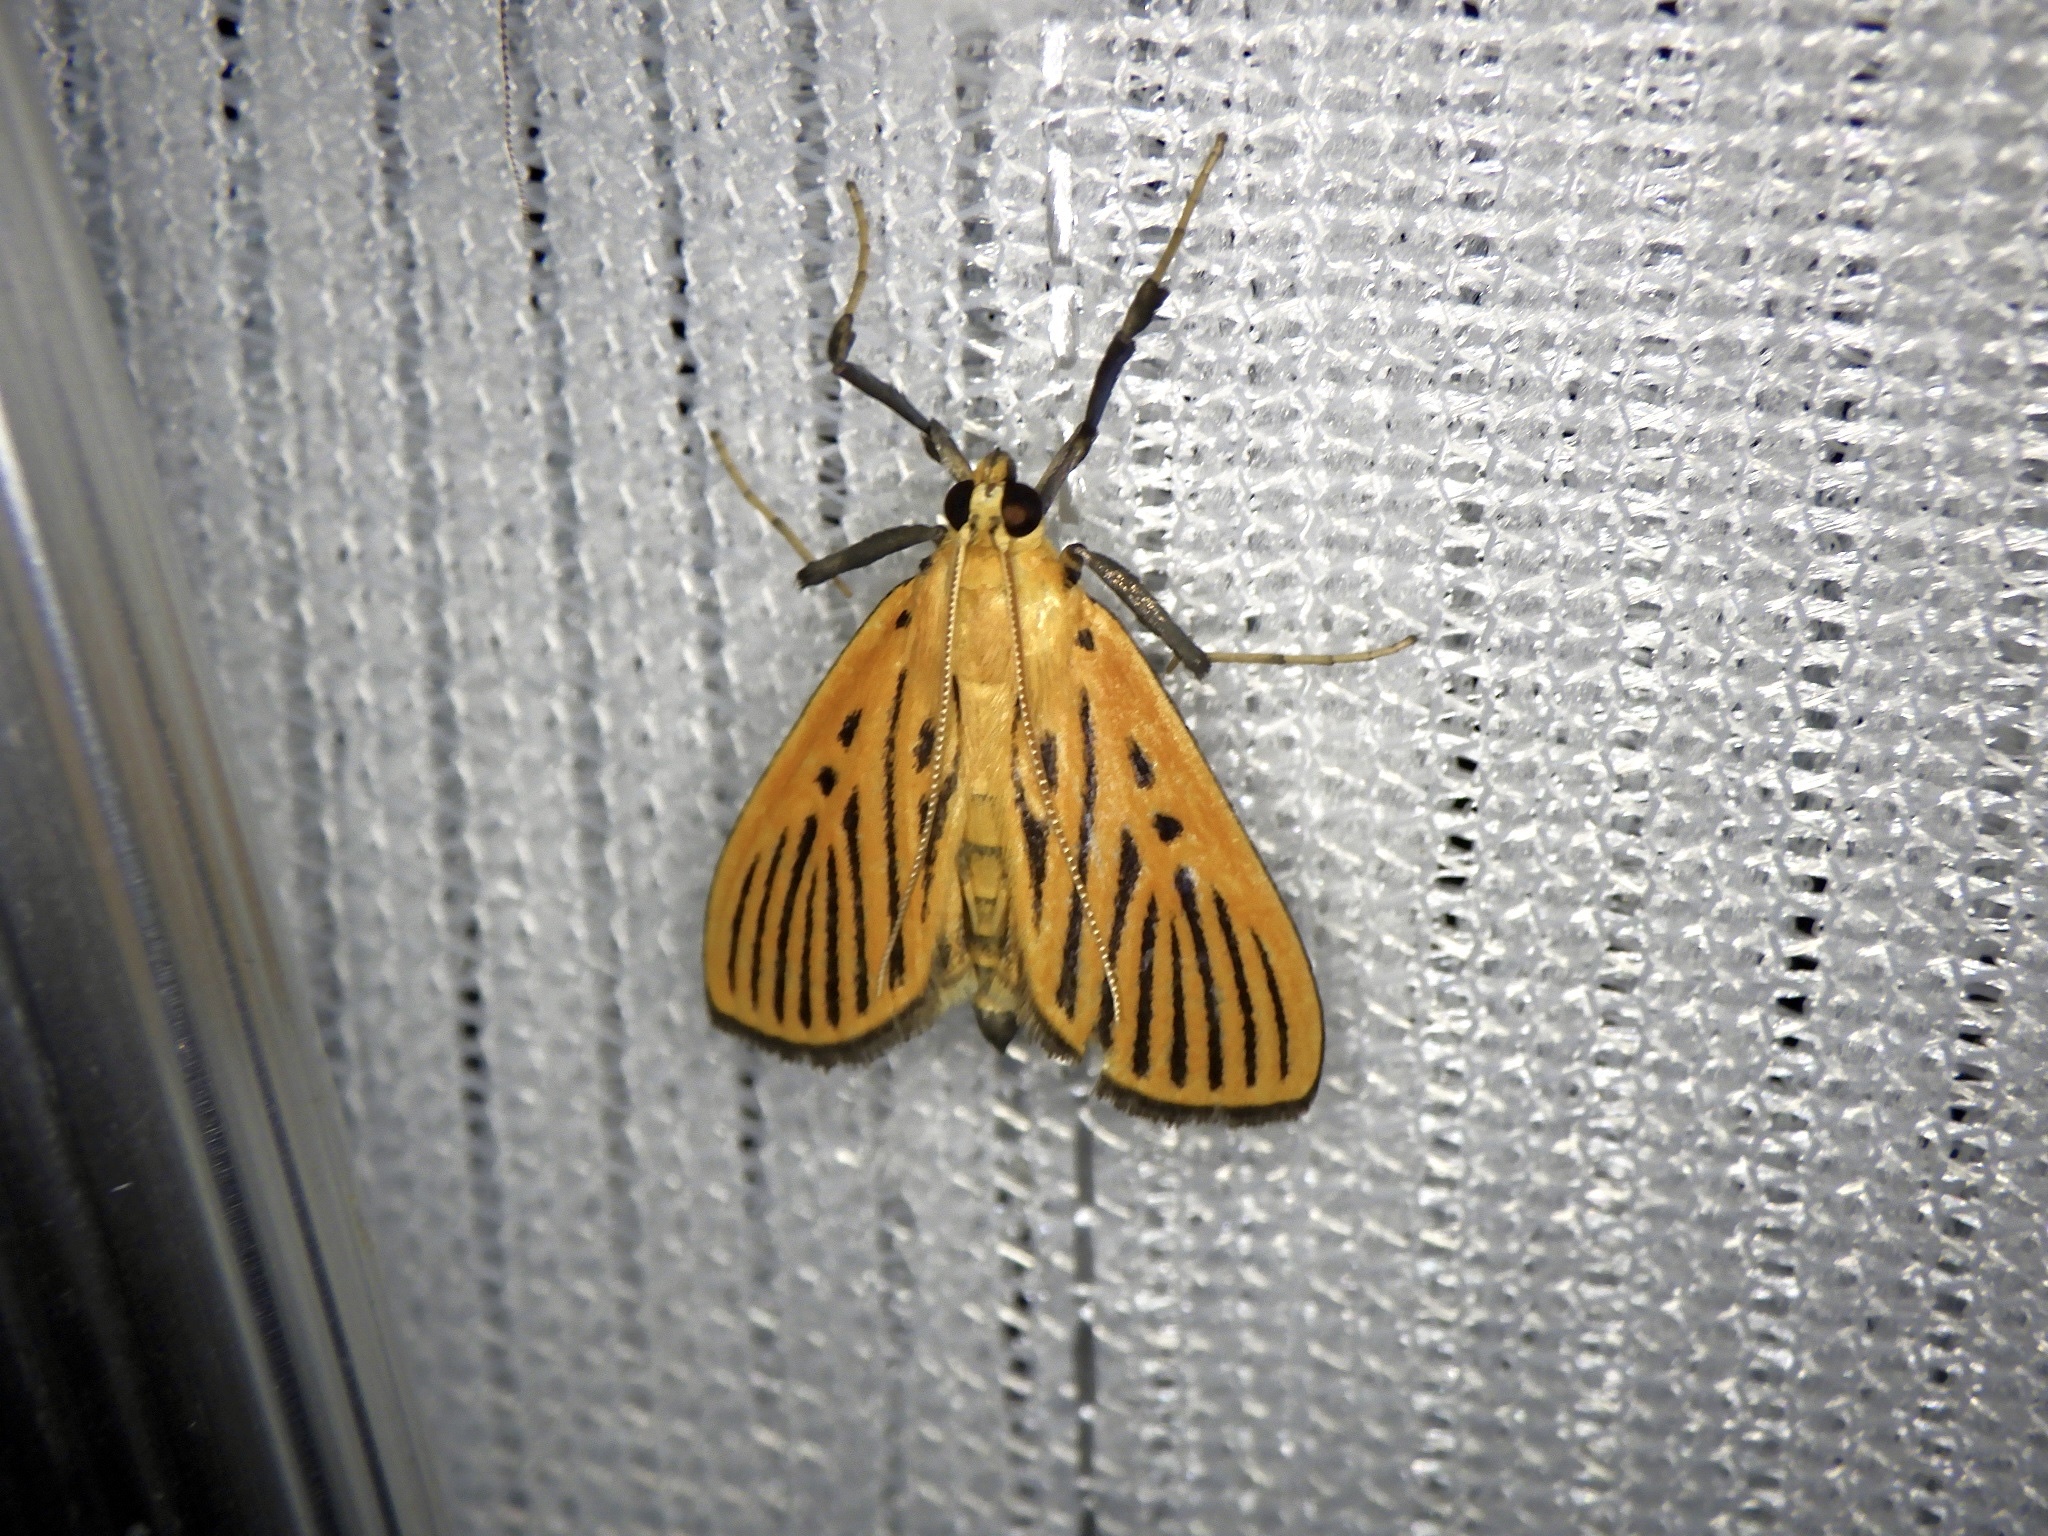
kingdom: Animalia
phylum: Arthropoda
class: Insecta
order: Lepidoptera
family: Crambidae
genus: Tyspanodes
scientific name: Tyspanodes striata
